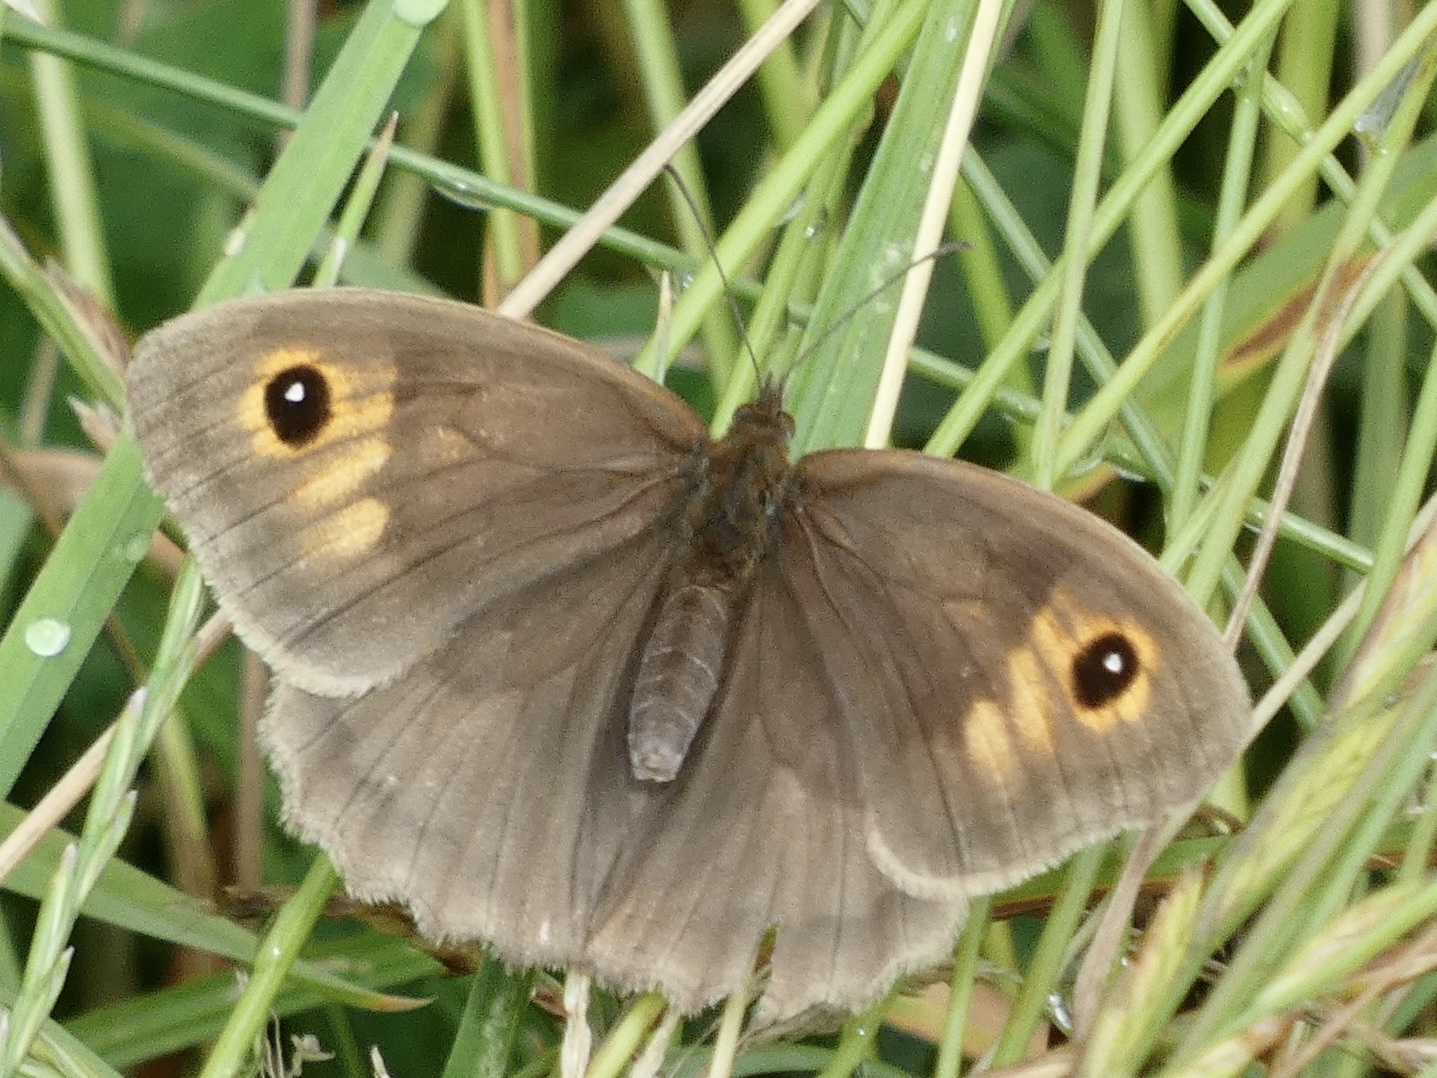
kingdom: Animalia
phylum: Arthropoda
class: Insecta
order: Lepidoptera
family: Nymphalidae
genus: Maniola
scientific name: Maniola jurtina
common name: Meadow brown
